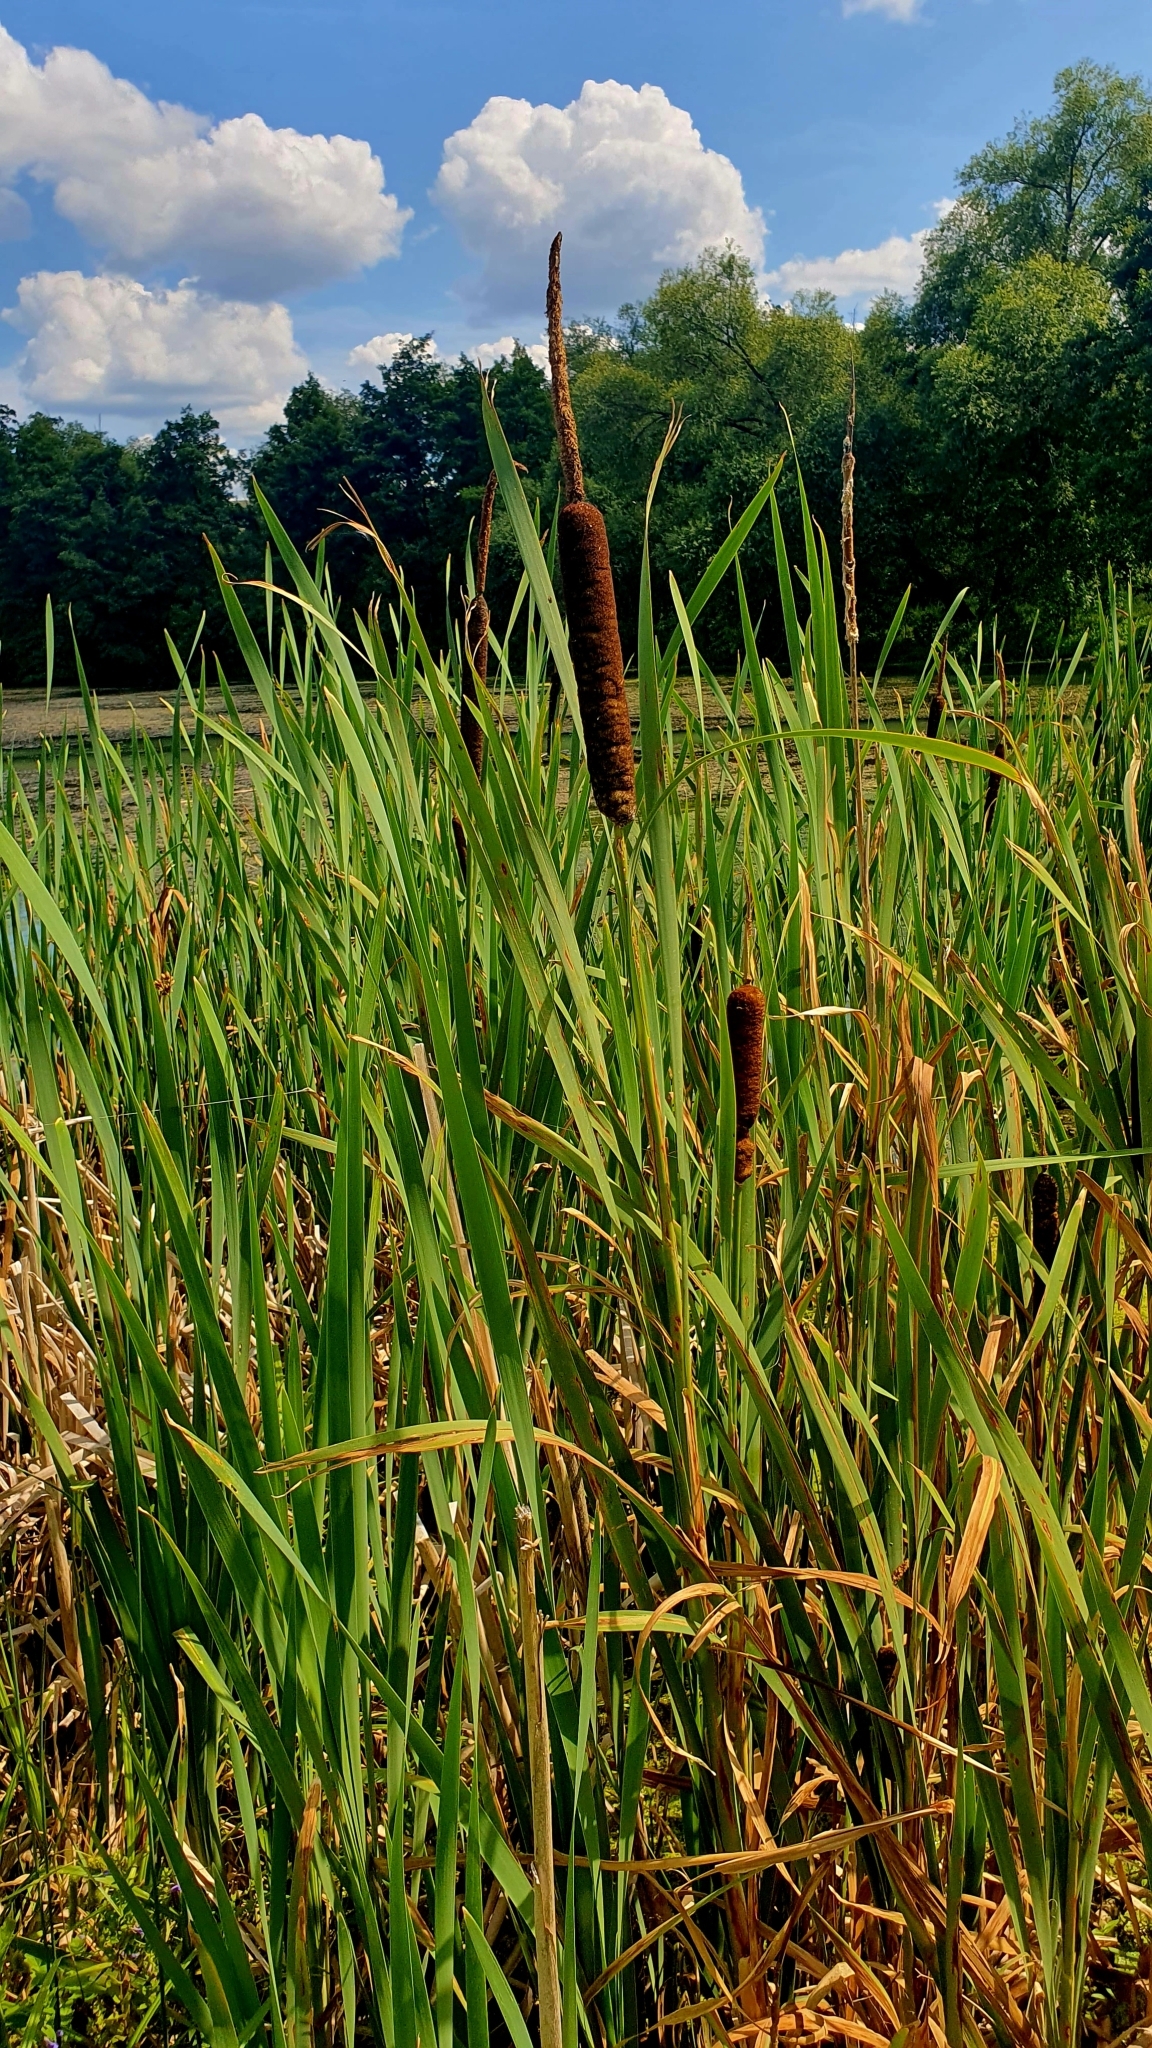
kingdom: Plantae
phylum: Tracheophyta
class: Liliopsida
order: Poales
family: Typhaceae
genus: Typha
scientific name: Typha latifolia
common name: Broadleaf cattail
